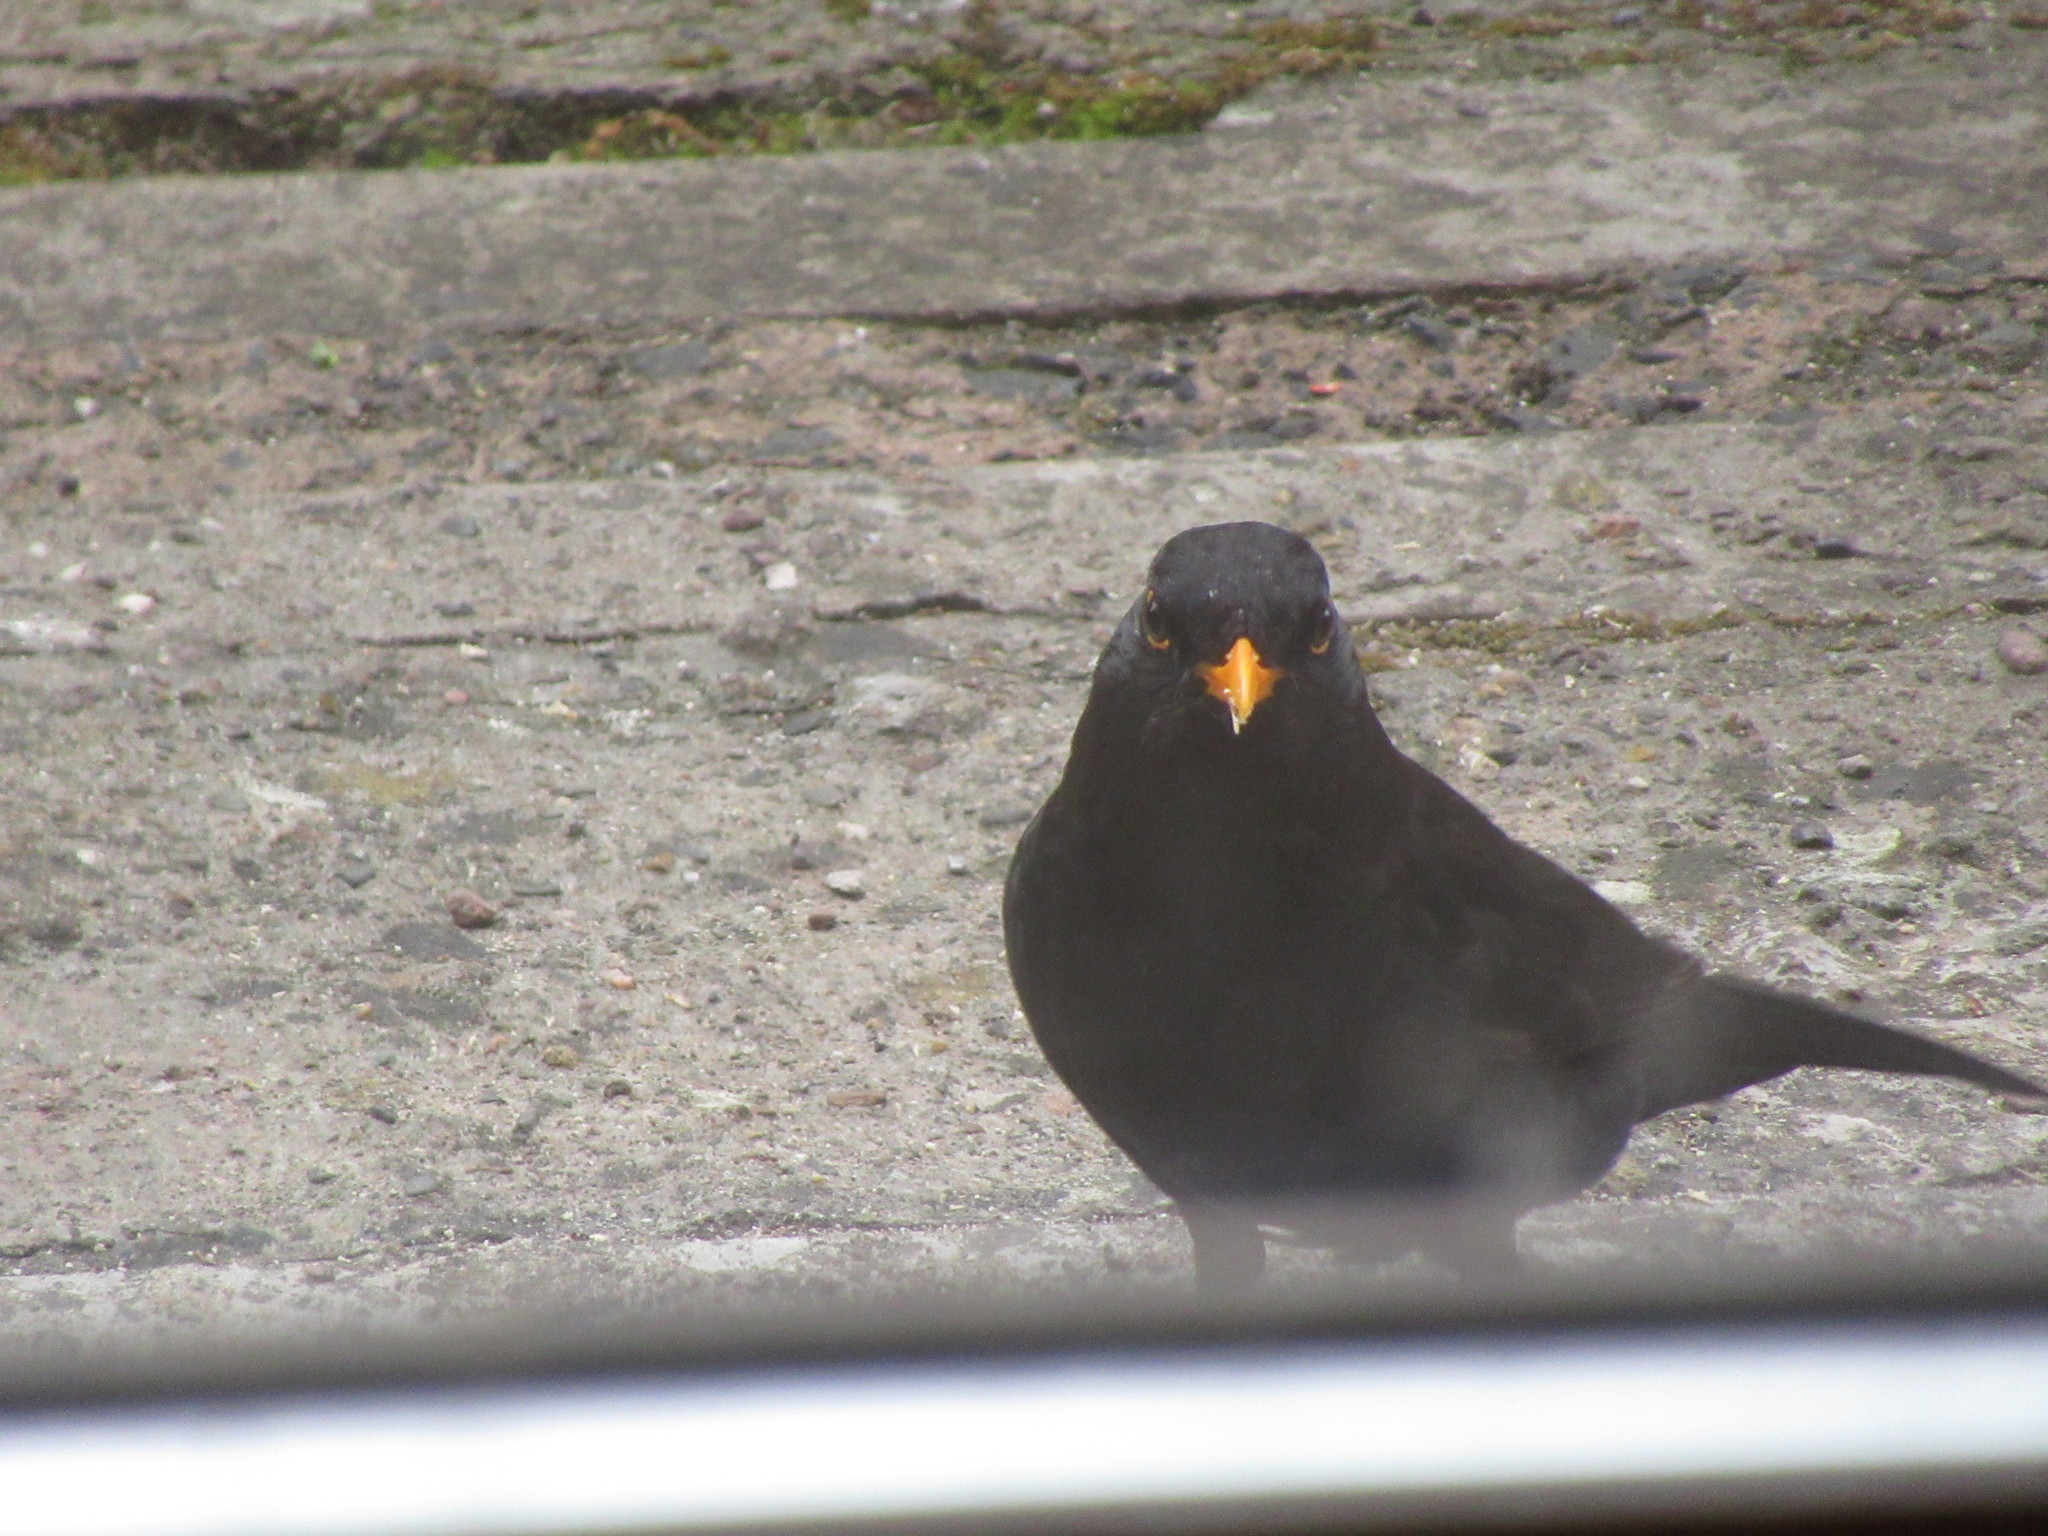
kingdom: Animalia
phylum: Chordata
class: Aves
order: Passeriformes
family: Turdidae
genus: Turdus
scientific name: Turdus merula
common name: Common blackbird
